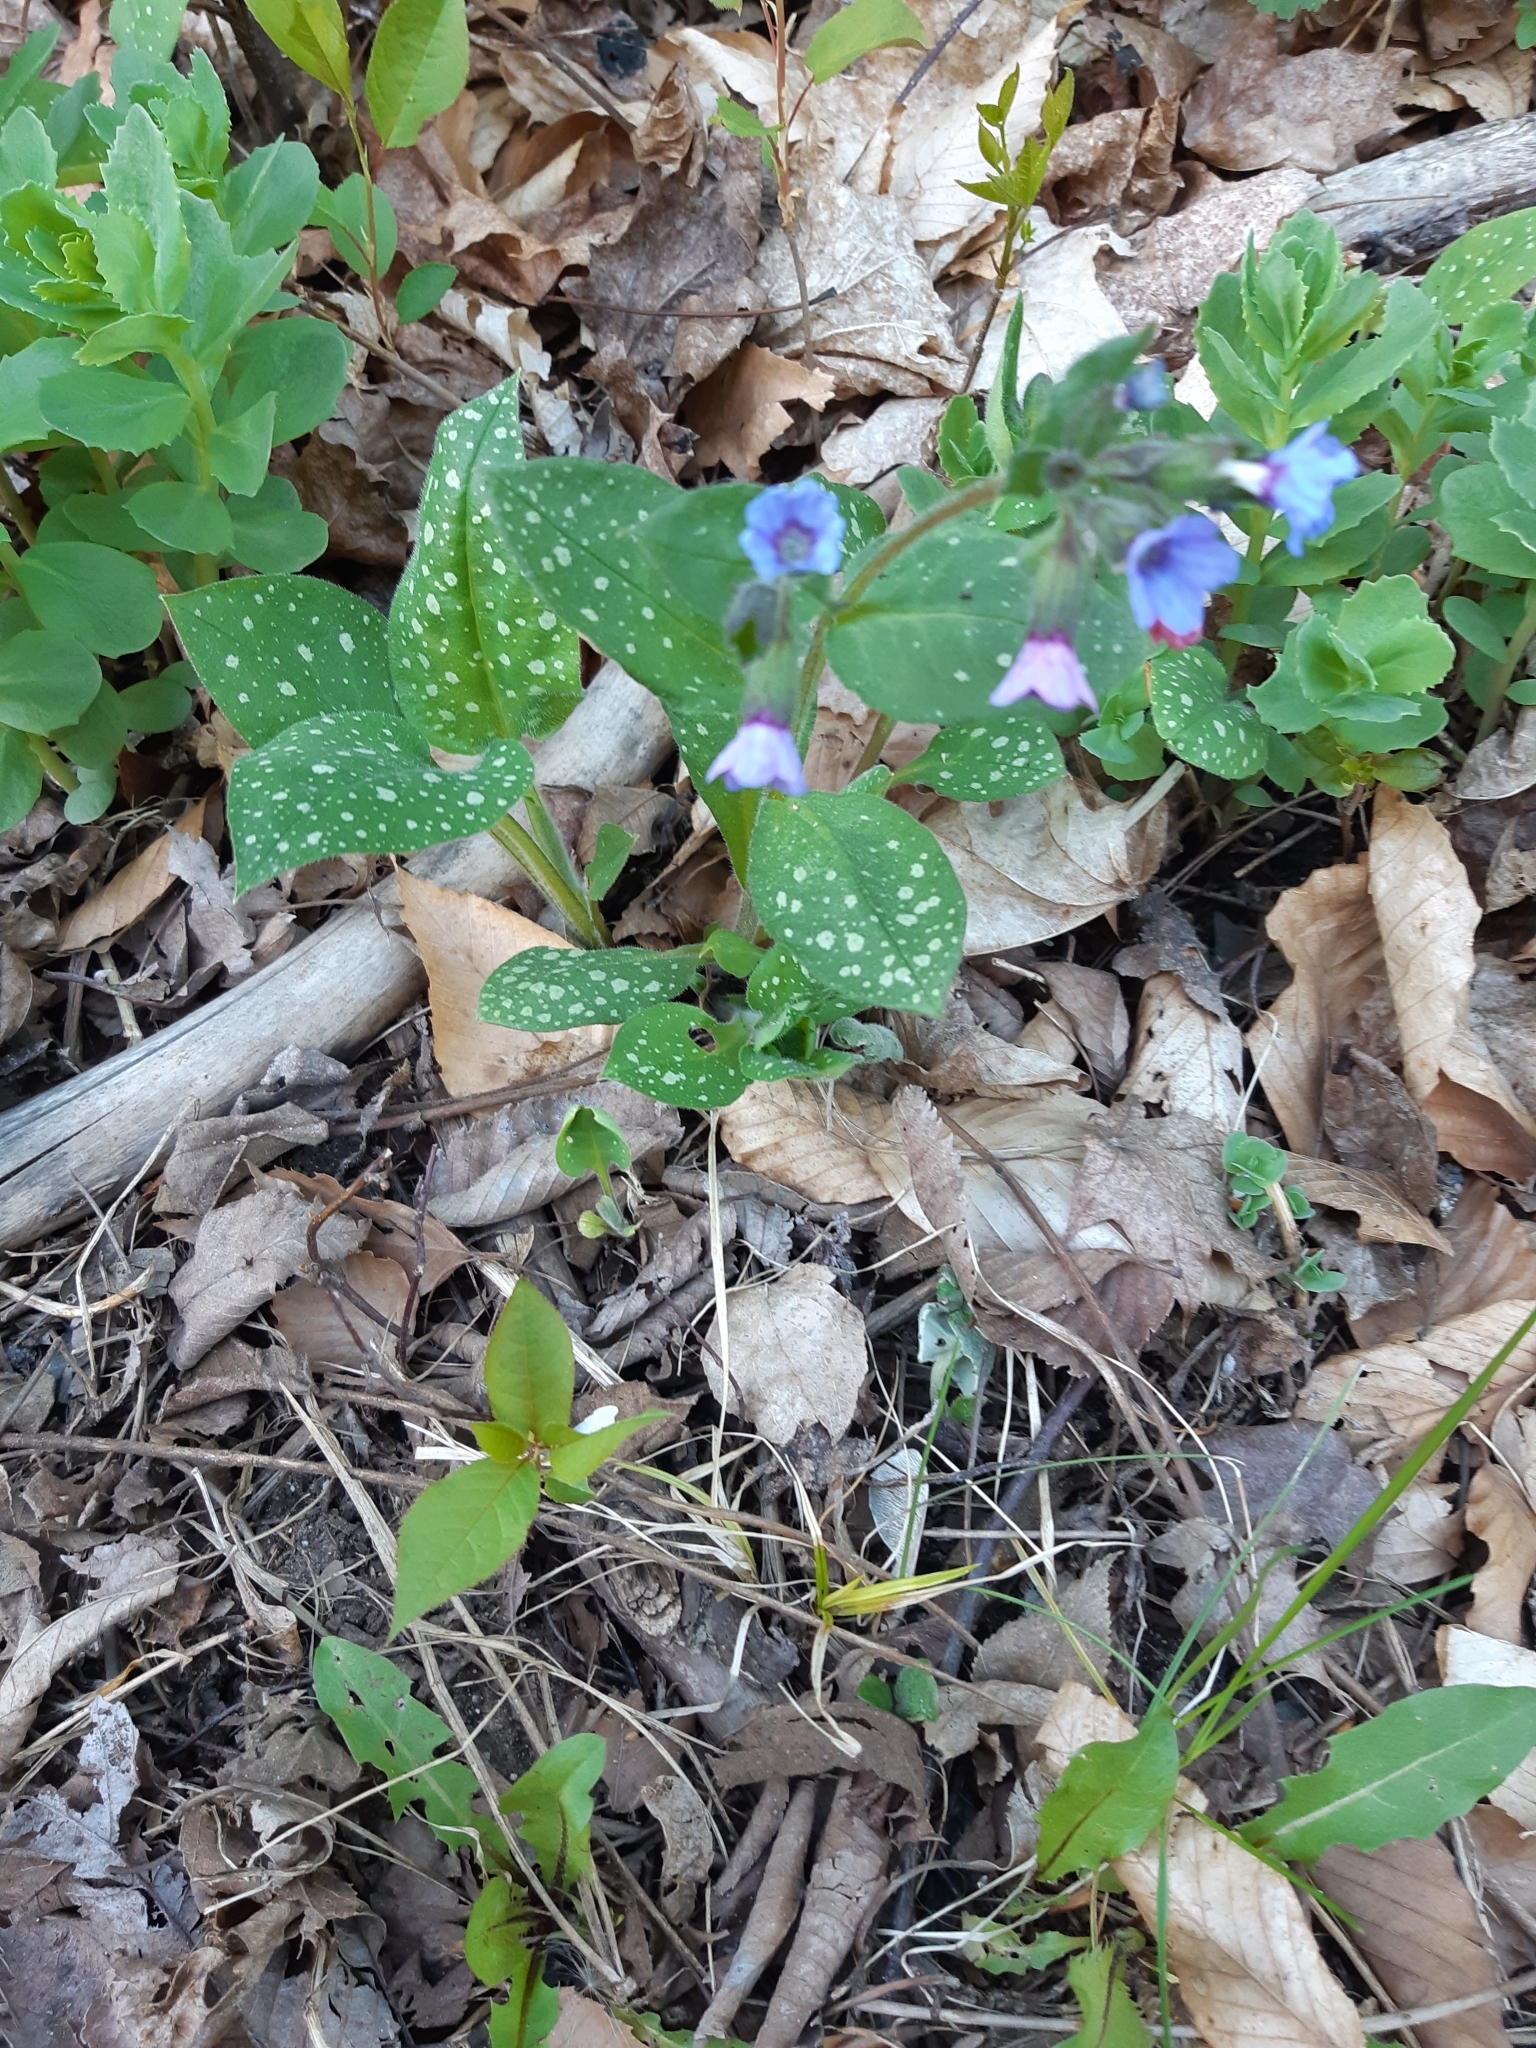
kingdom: Plantae
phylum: Tracheophyta
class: Magnoliopsida
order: Boraginales
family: Boraginaceae
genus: Pulmonaria
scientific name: Pulmonaria officinalis
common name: Lungwort
